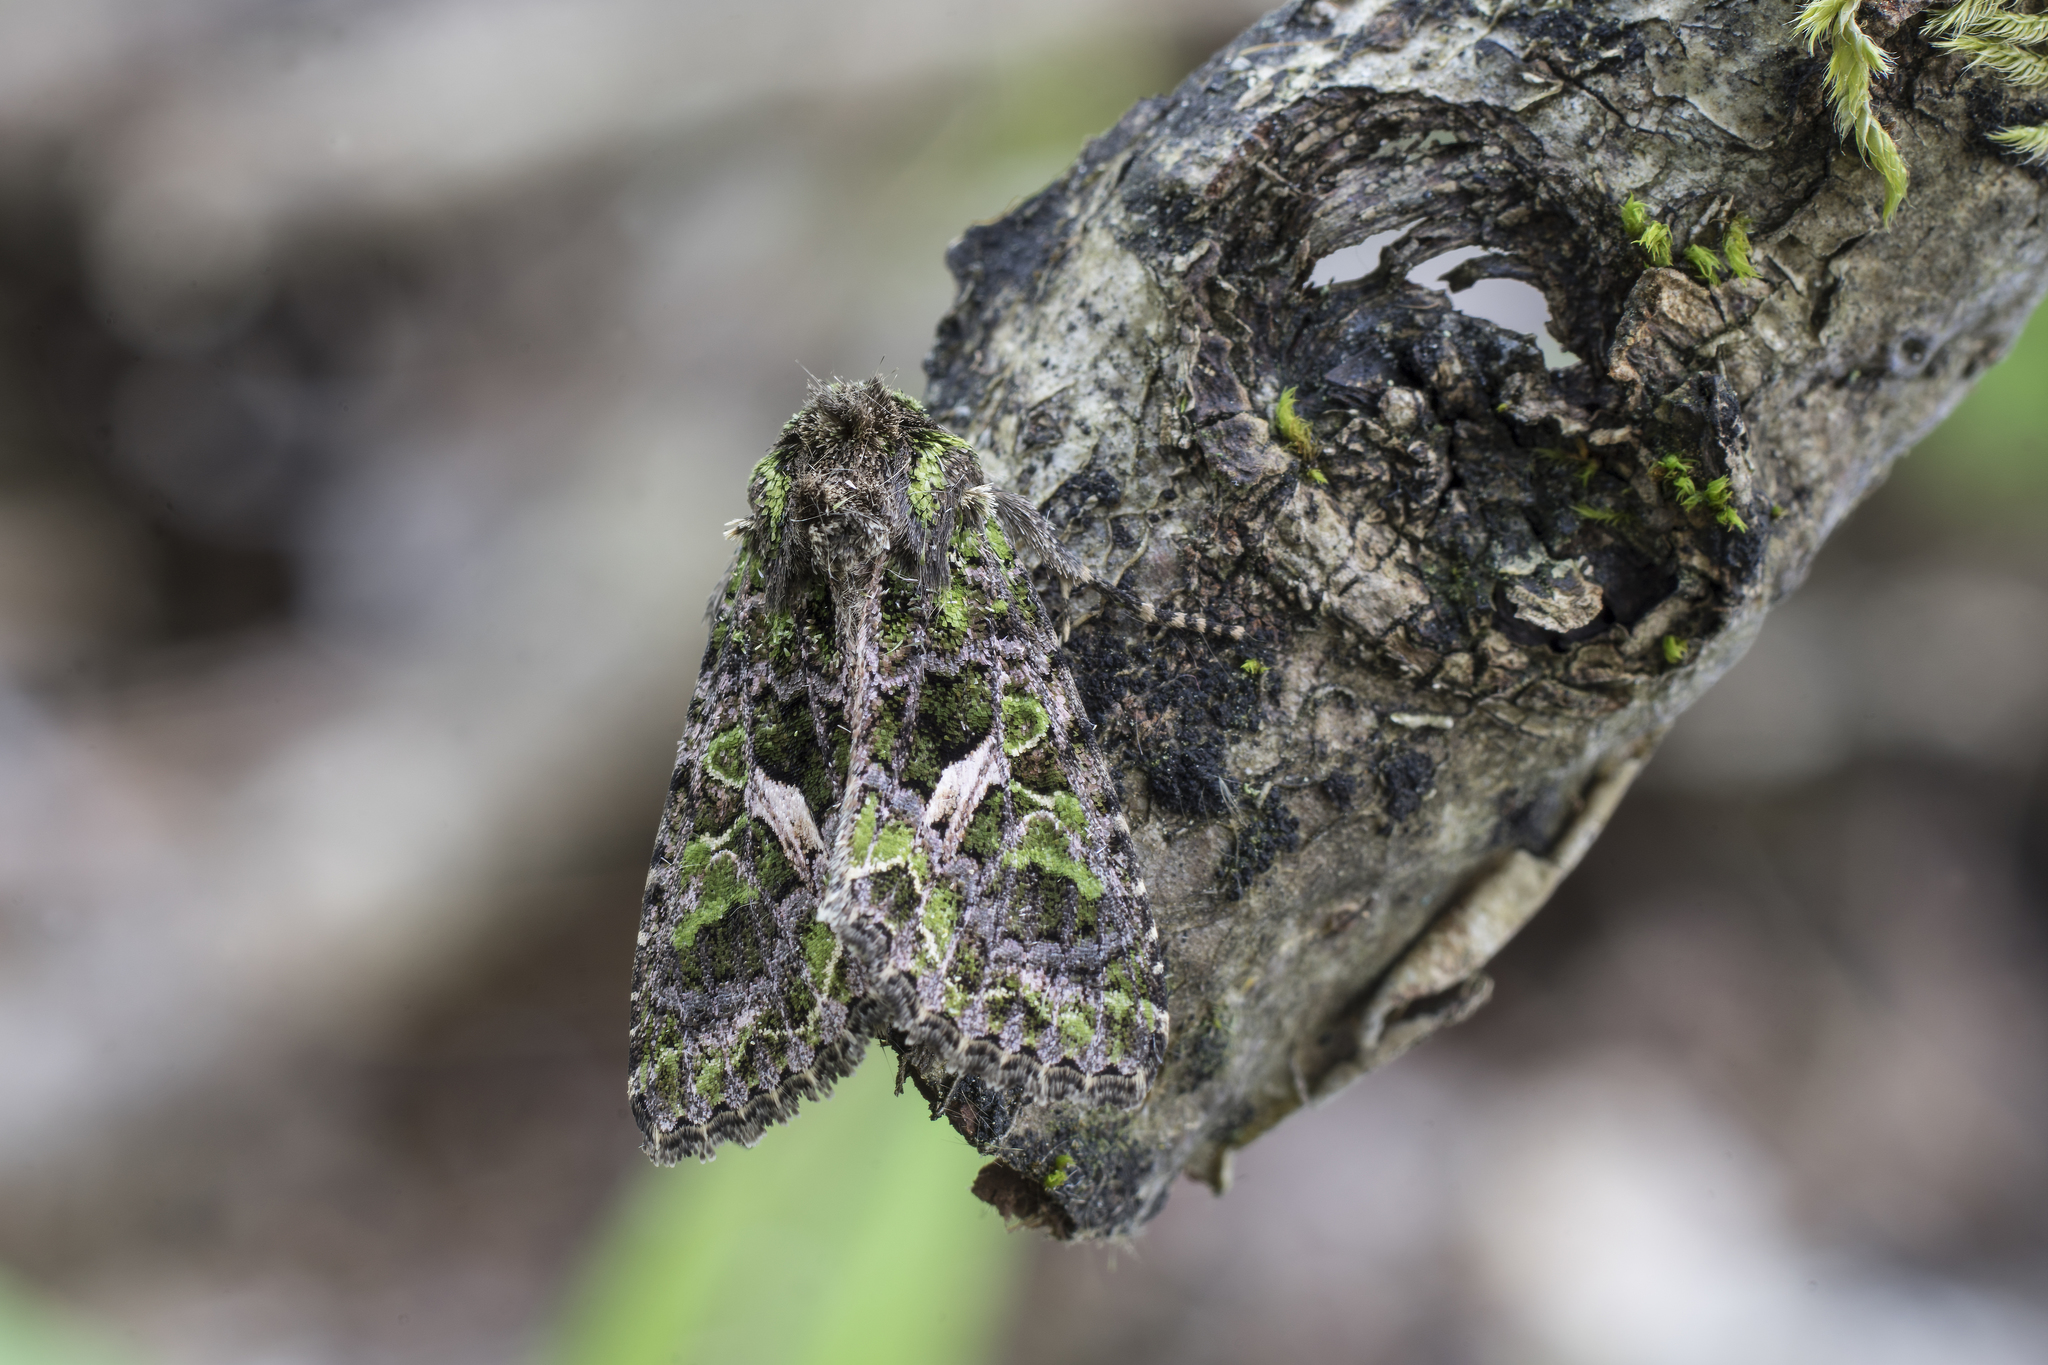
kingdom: Animalia
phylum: Arthropoda
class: Insecta
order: Lepidoptera
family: Noctuidae
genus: Trachea
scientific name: Trachea atriplicis
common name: Orache moth
